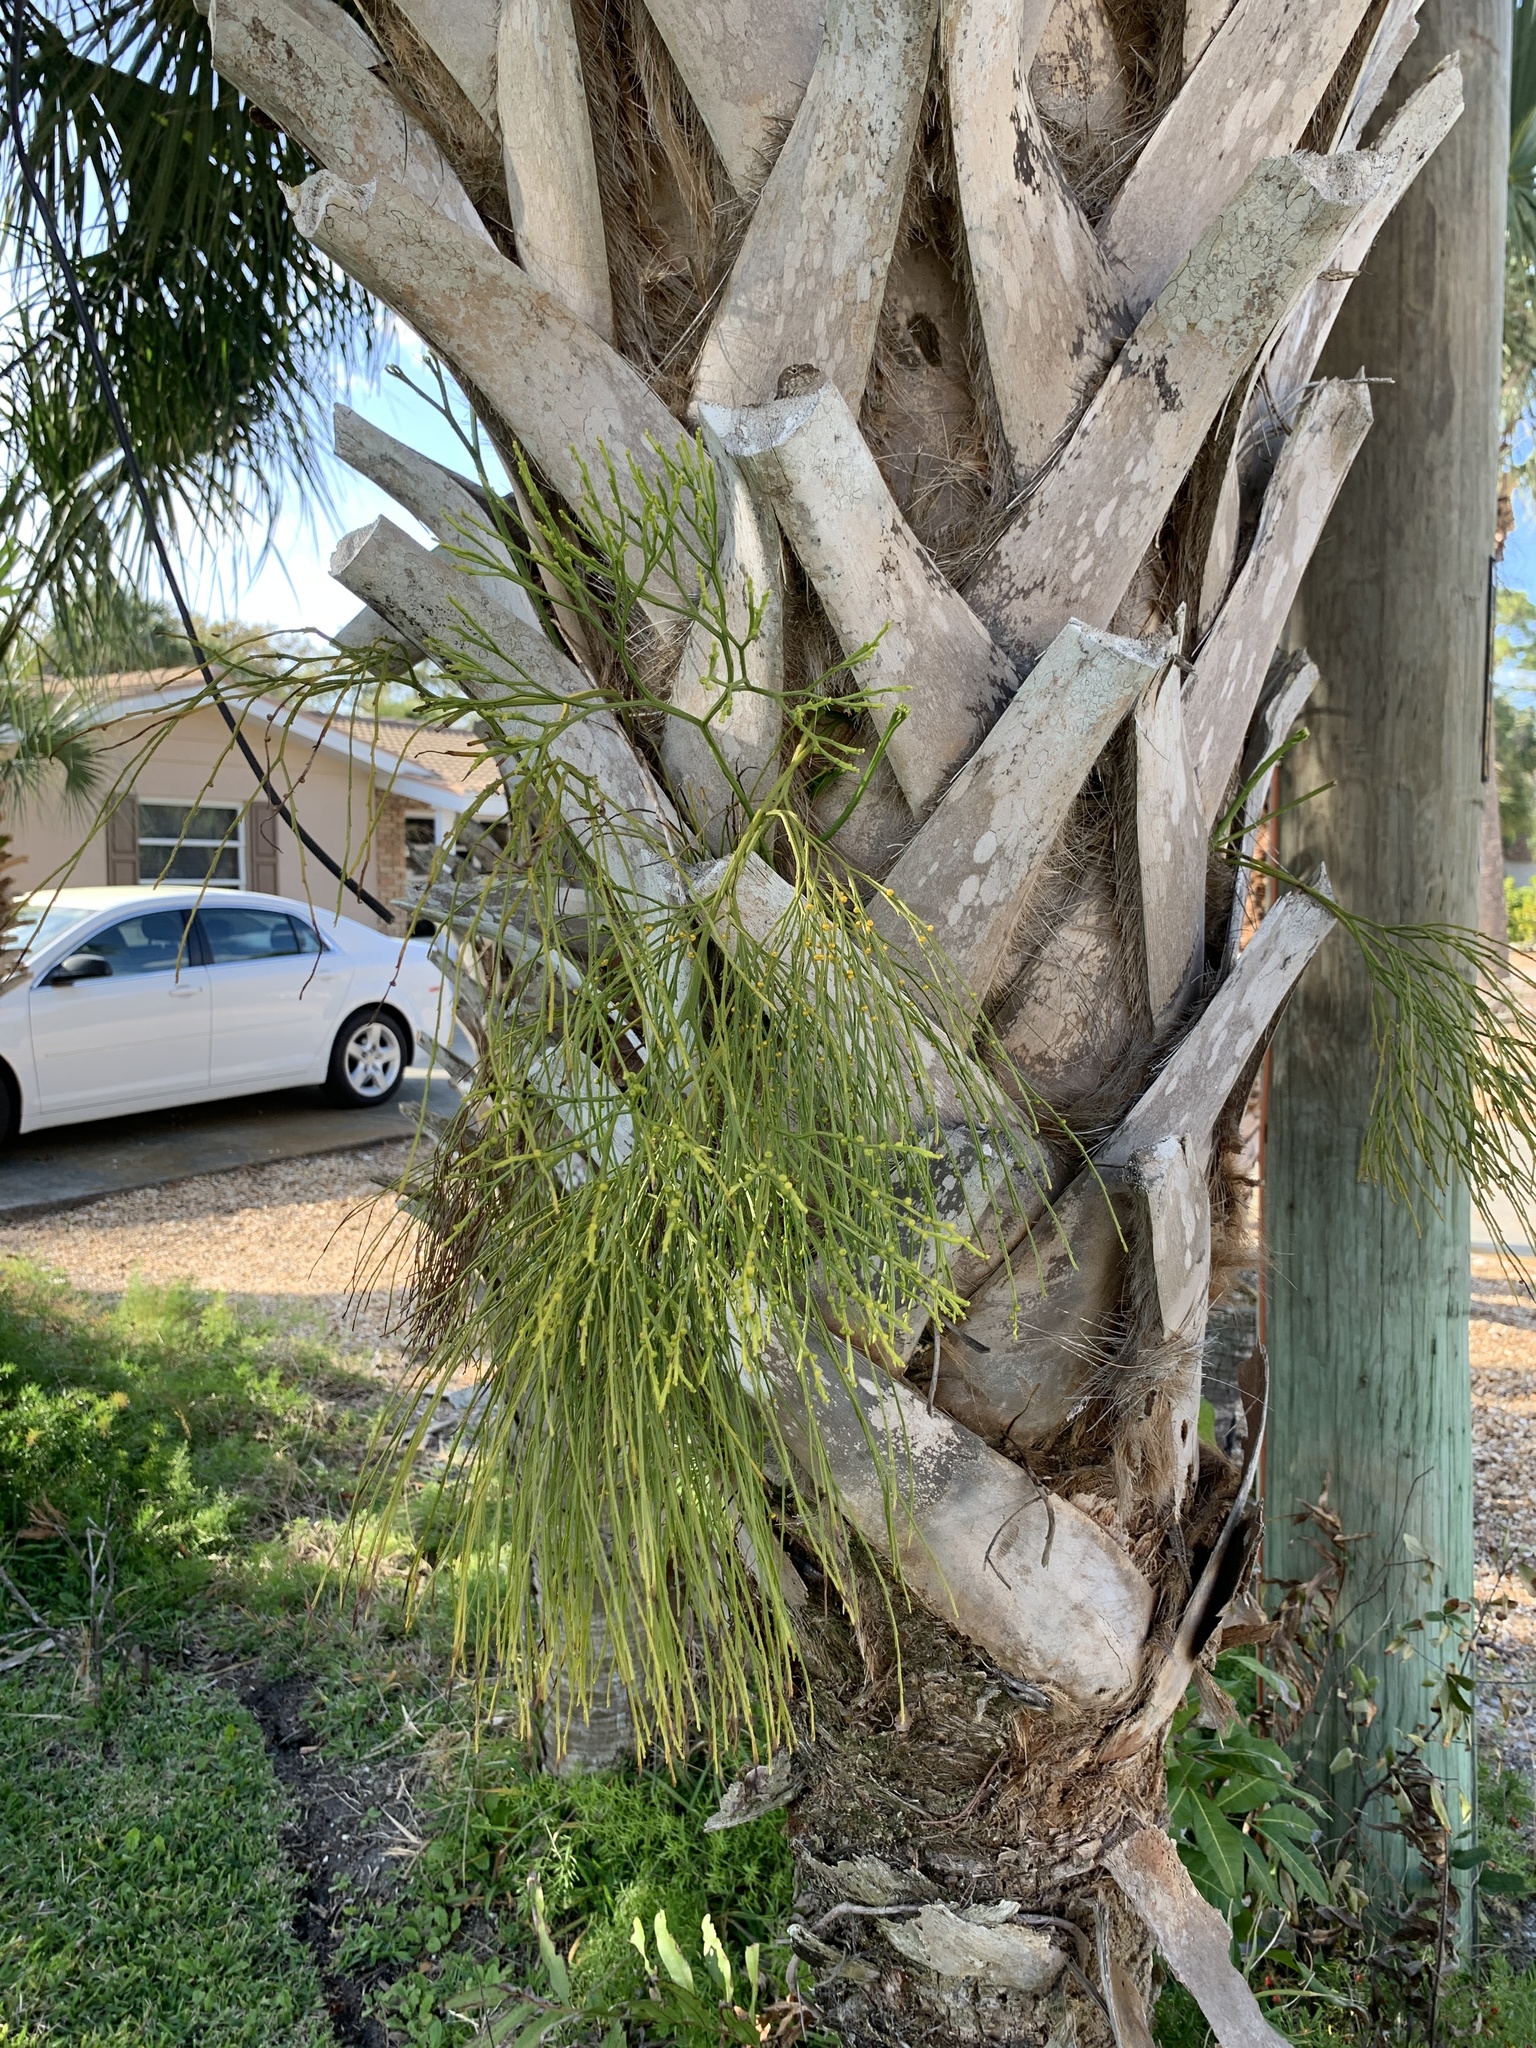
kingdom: Plantae
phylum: Tracheophyta
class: Polypodiopsida
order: Psilotales
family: Psilotaceae
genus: Psilotum
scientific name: Psilotum nudum
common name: Skeleton fork fern
